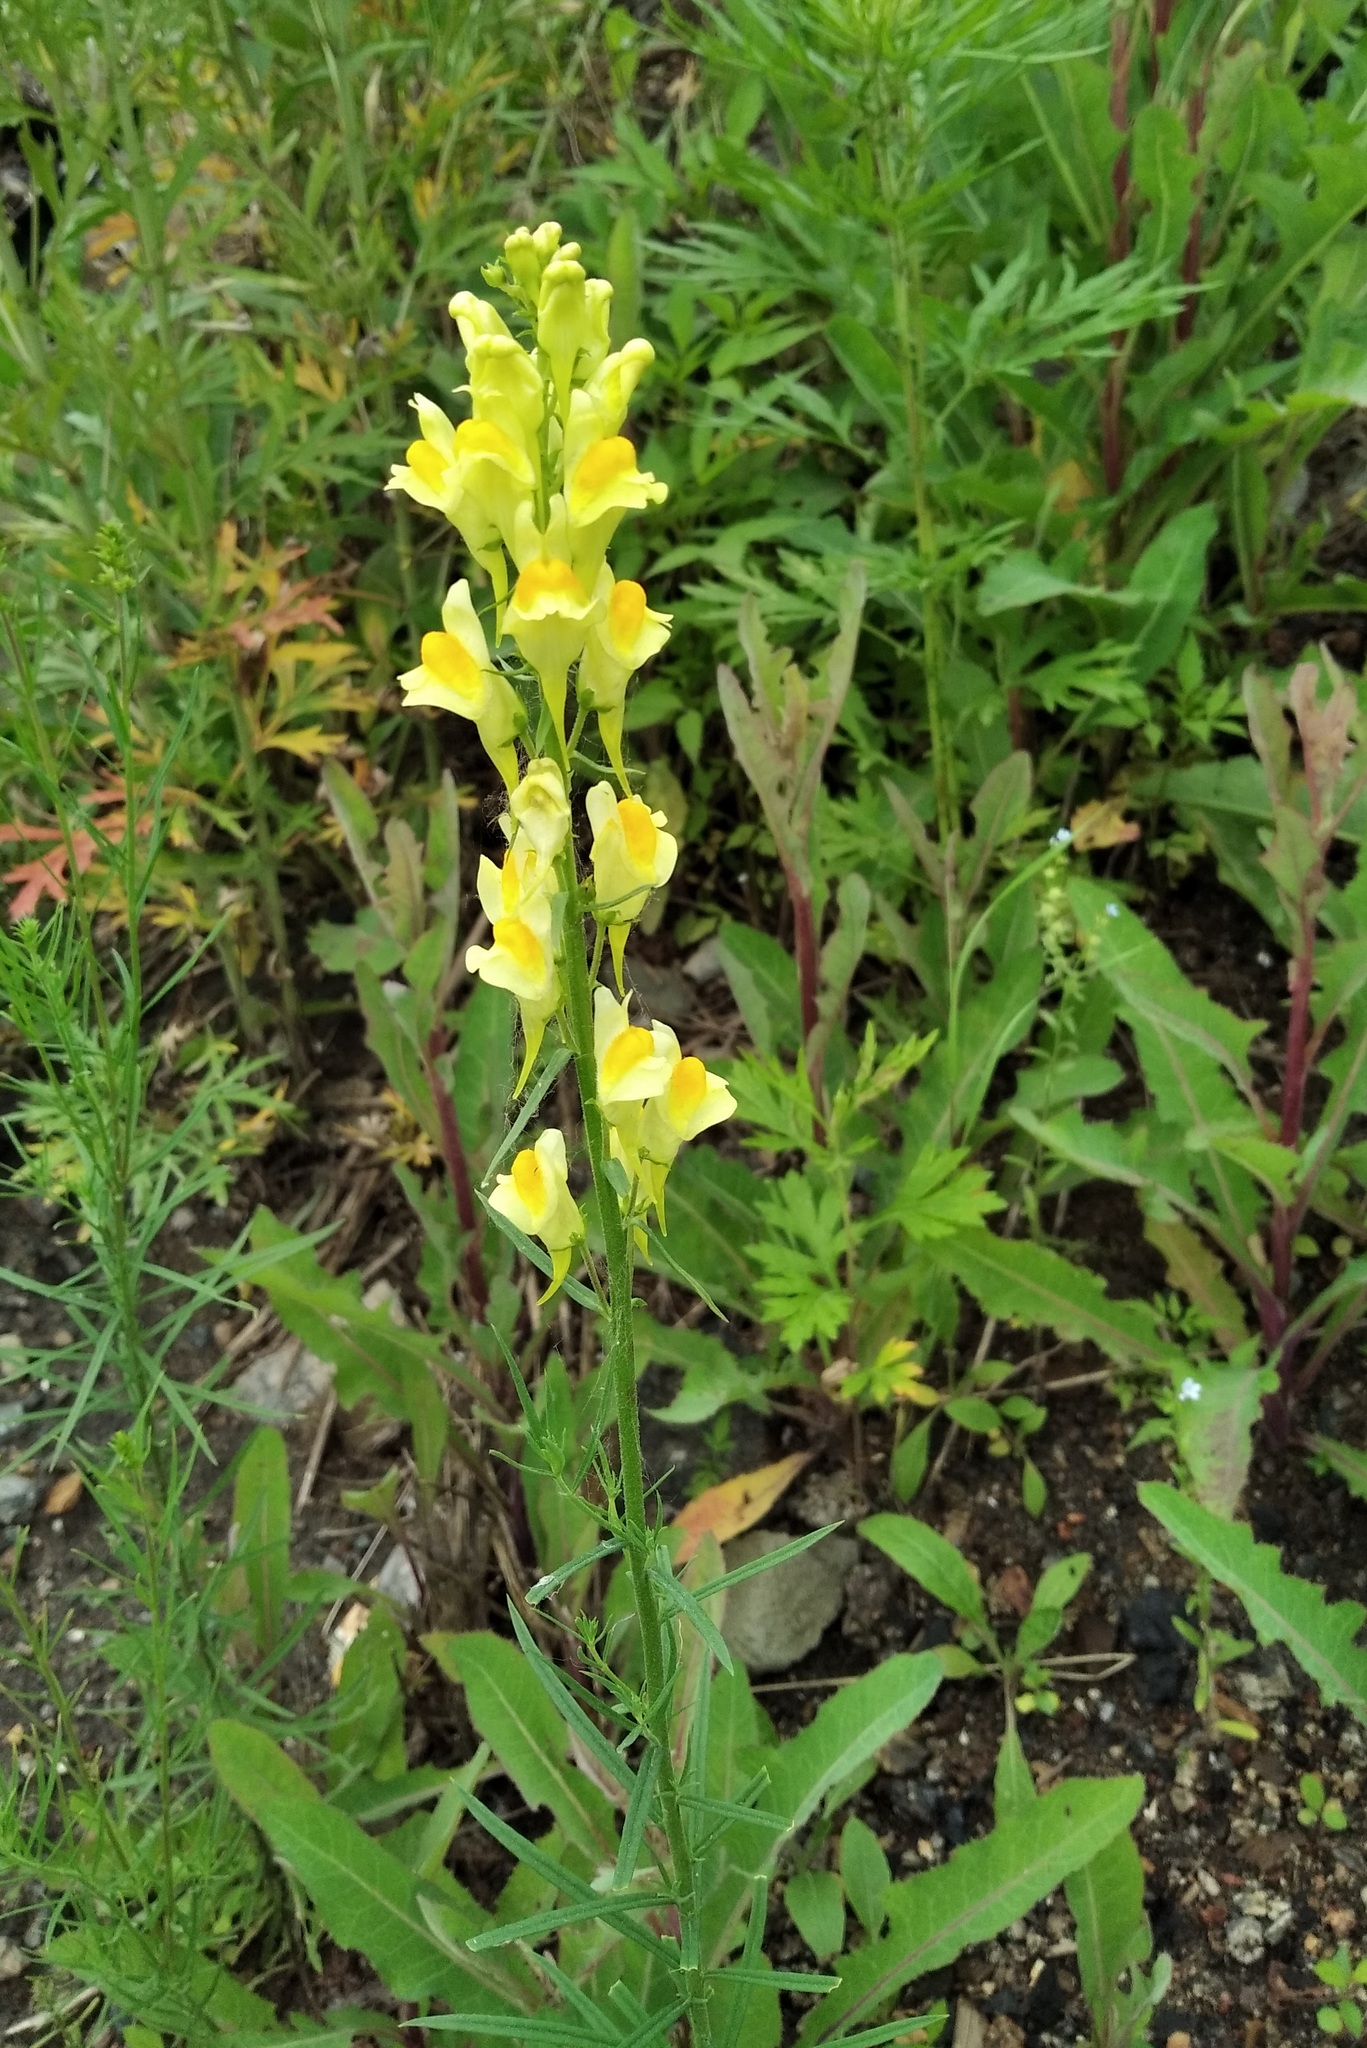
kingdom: Plantae
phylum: Tracheophyta
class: Magnoliopsida
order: Lamiales
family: Plantaginaceae
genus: Linaria
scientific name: Linaria vulgaris
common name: Butter and eggs
